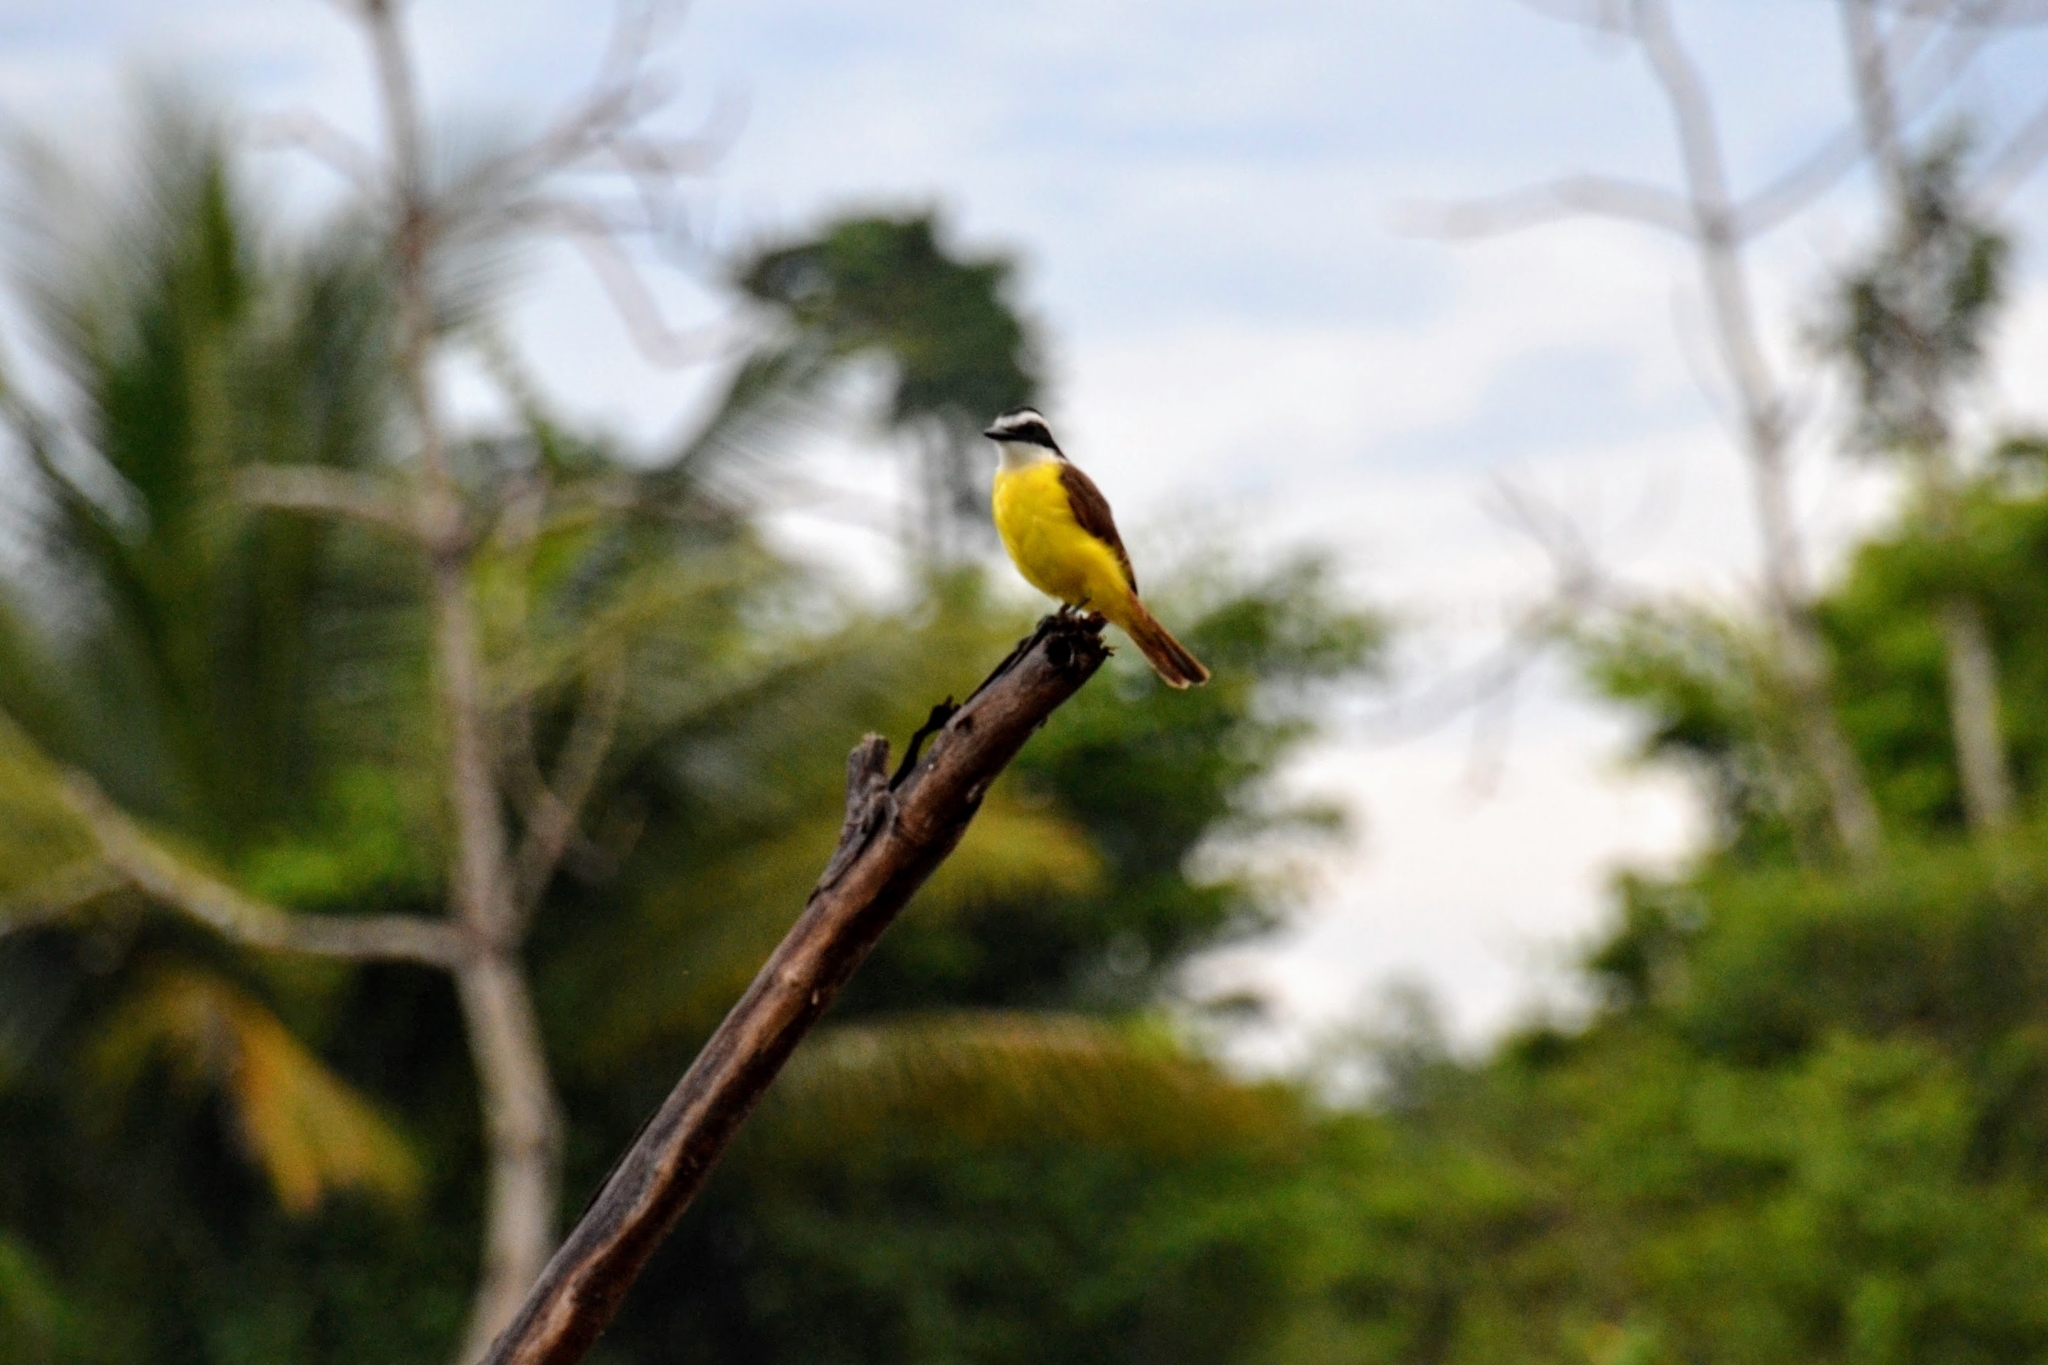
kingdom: Animalia
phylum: Chordata
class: Aves
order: Passeriformes
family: Tyrannidae
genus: Pitangus
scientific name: Pitangus sulphuratus
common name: Great kiskadee
